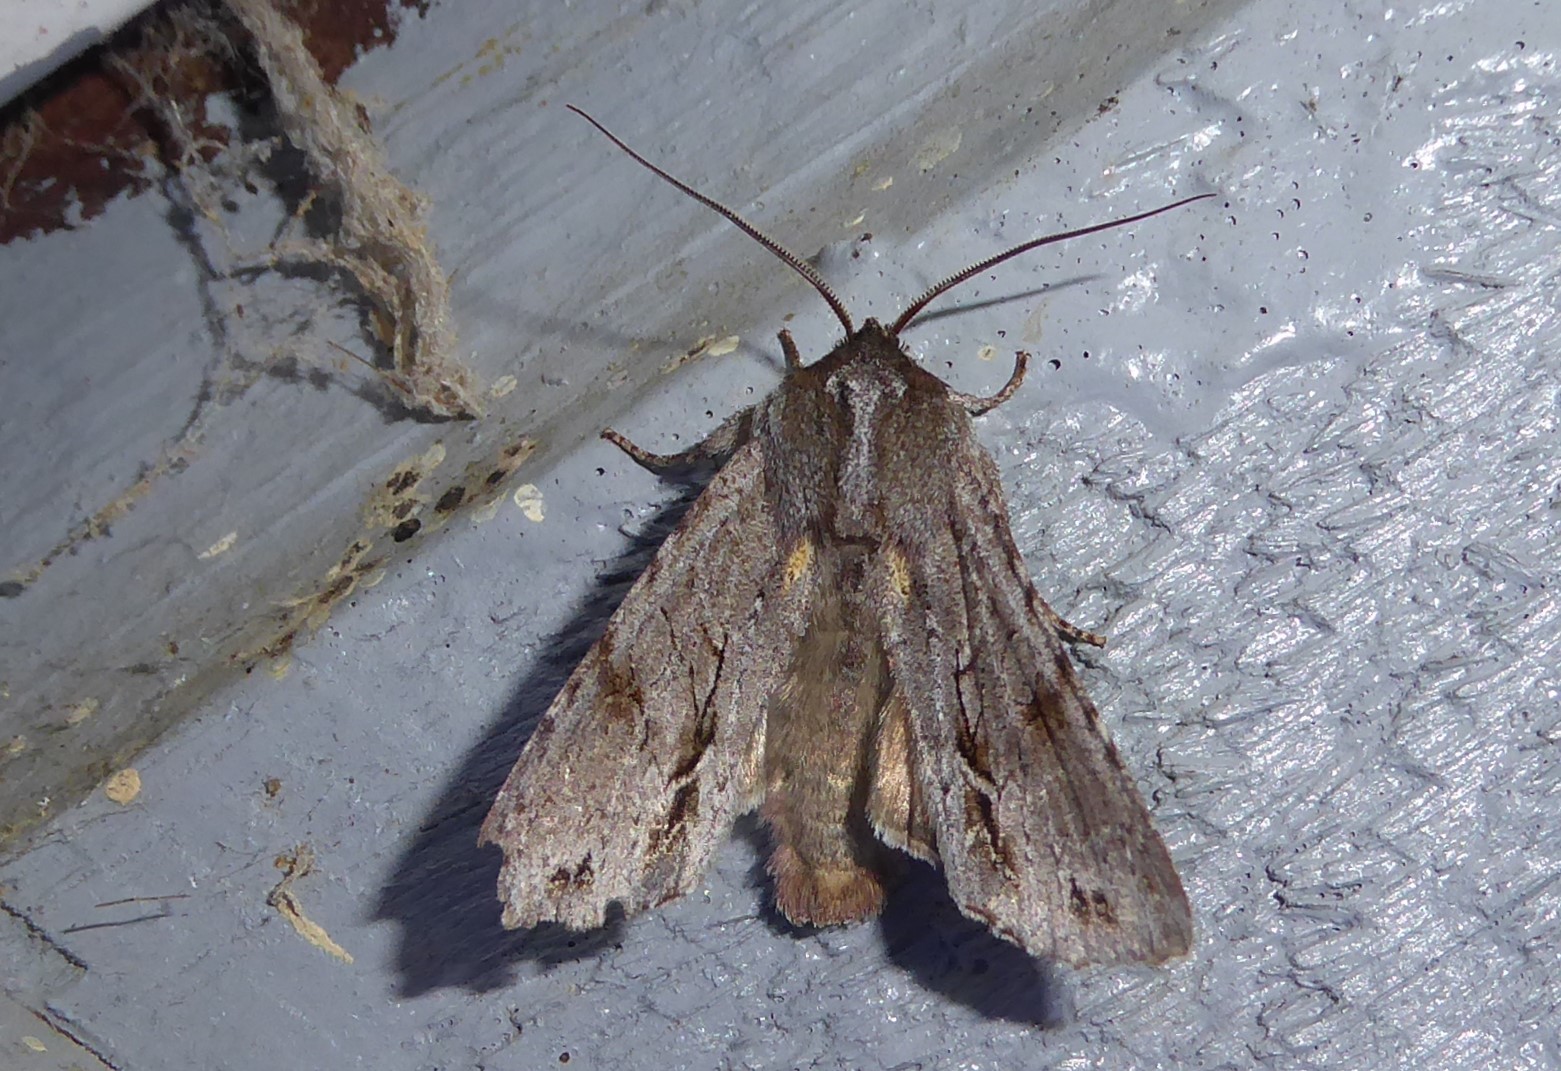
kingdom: Animalia
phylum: Arthropoda
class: Insecta
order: Lepidoptera
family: Noctuidae
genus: Ichneutica
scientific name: Ichneutica
